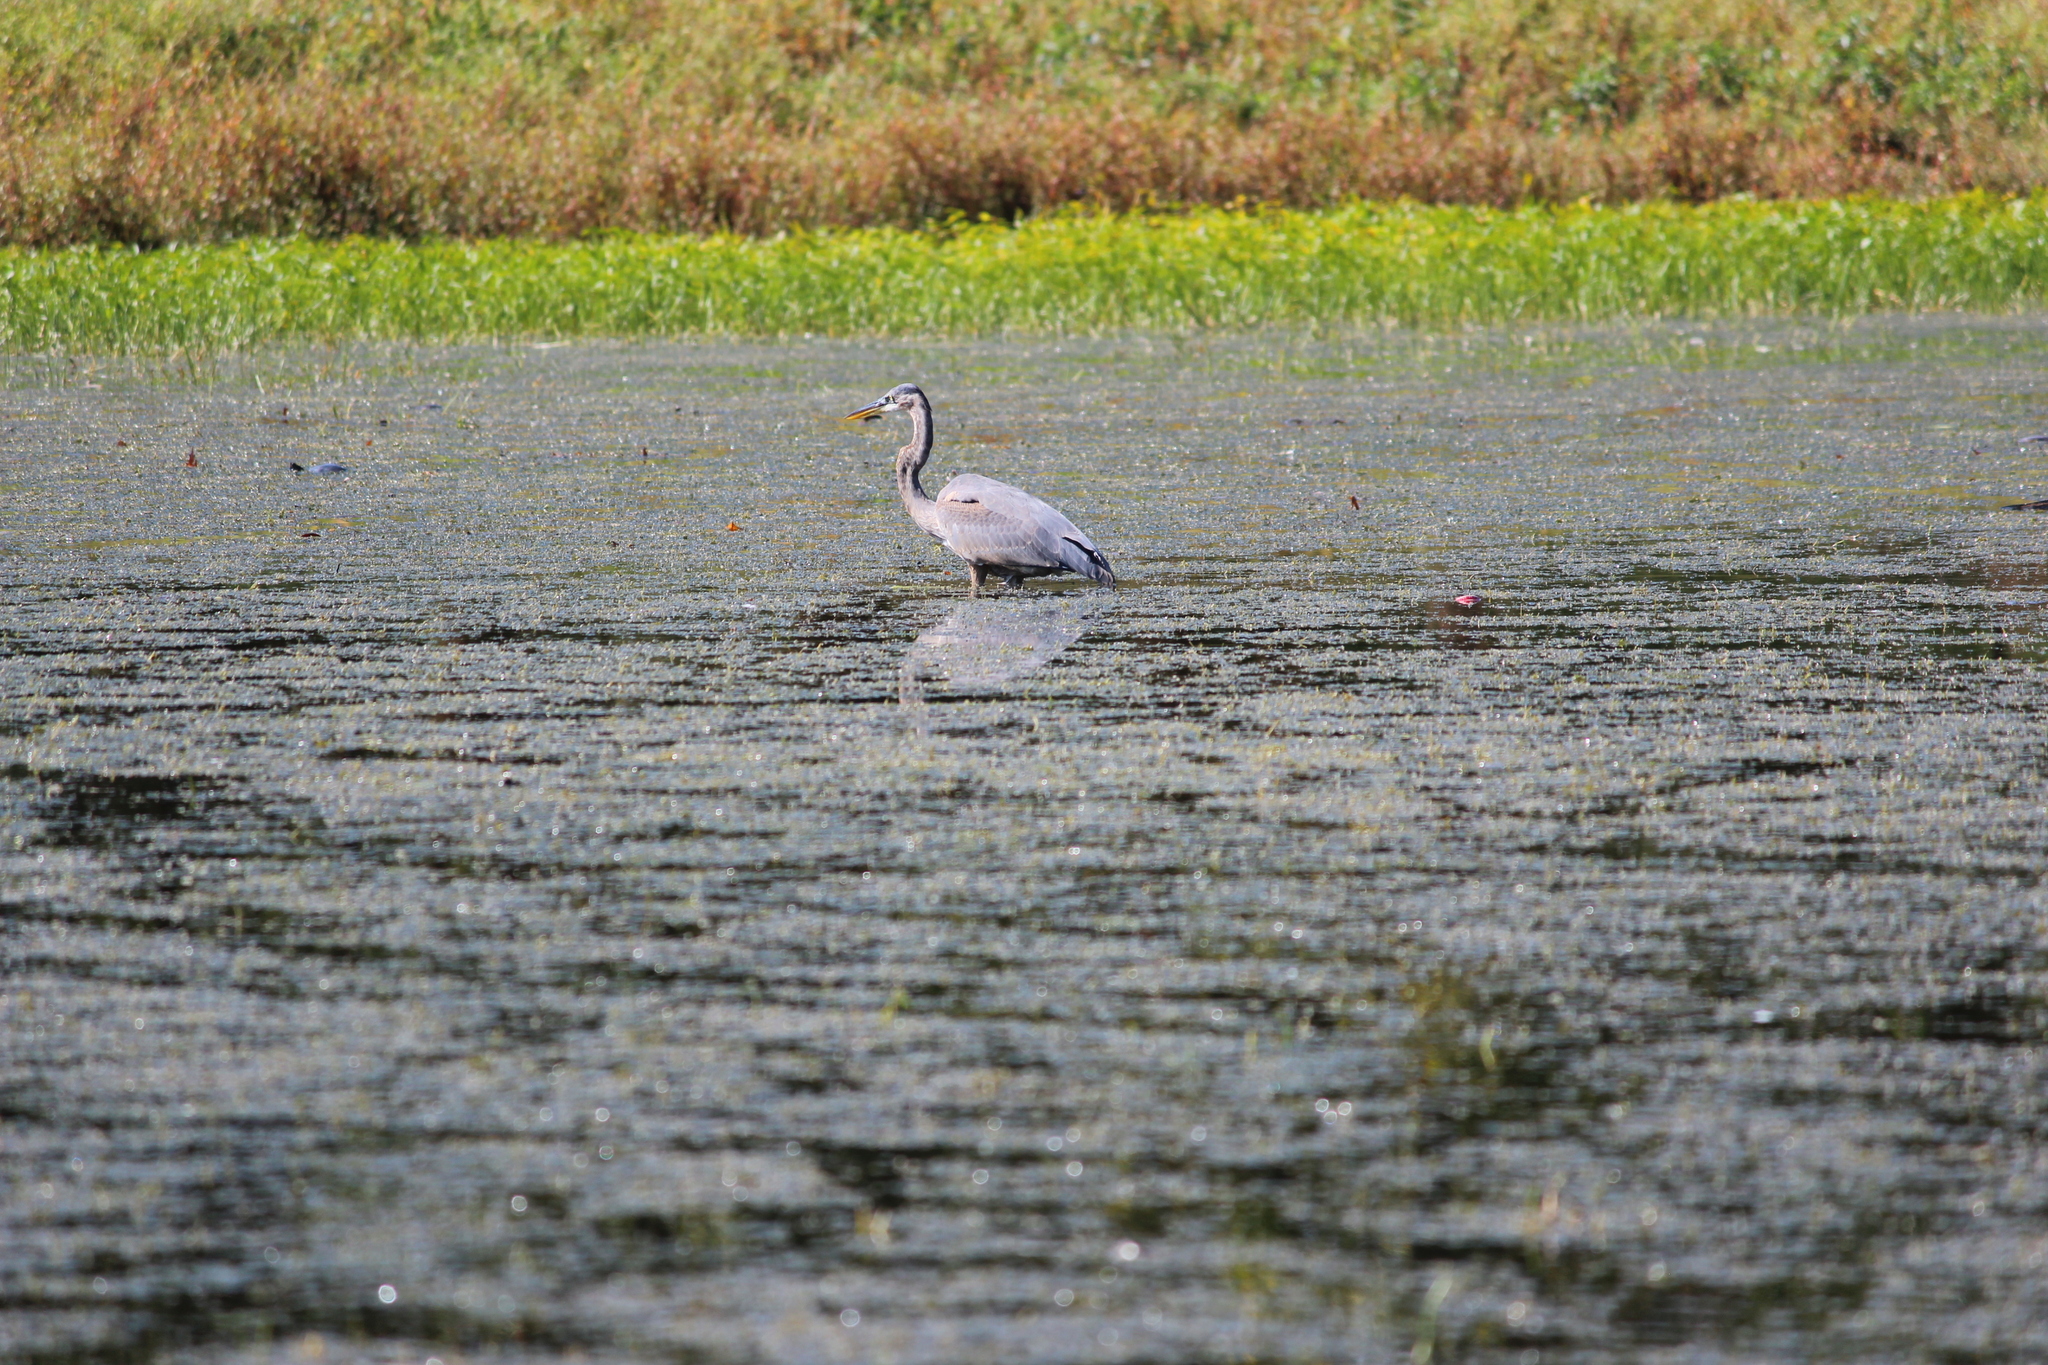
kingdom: Animalia
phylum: Chordata
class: Aves
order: Pelecaniformes
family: Ardeidae
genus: Ardea
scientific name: Ardea herodias
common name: Great blue heron
